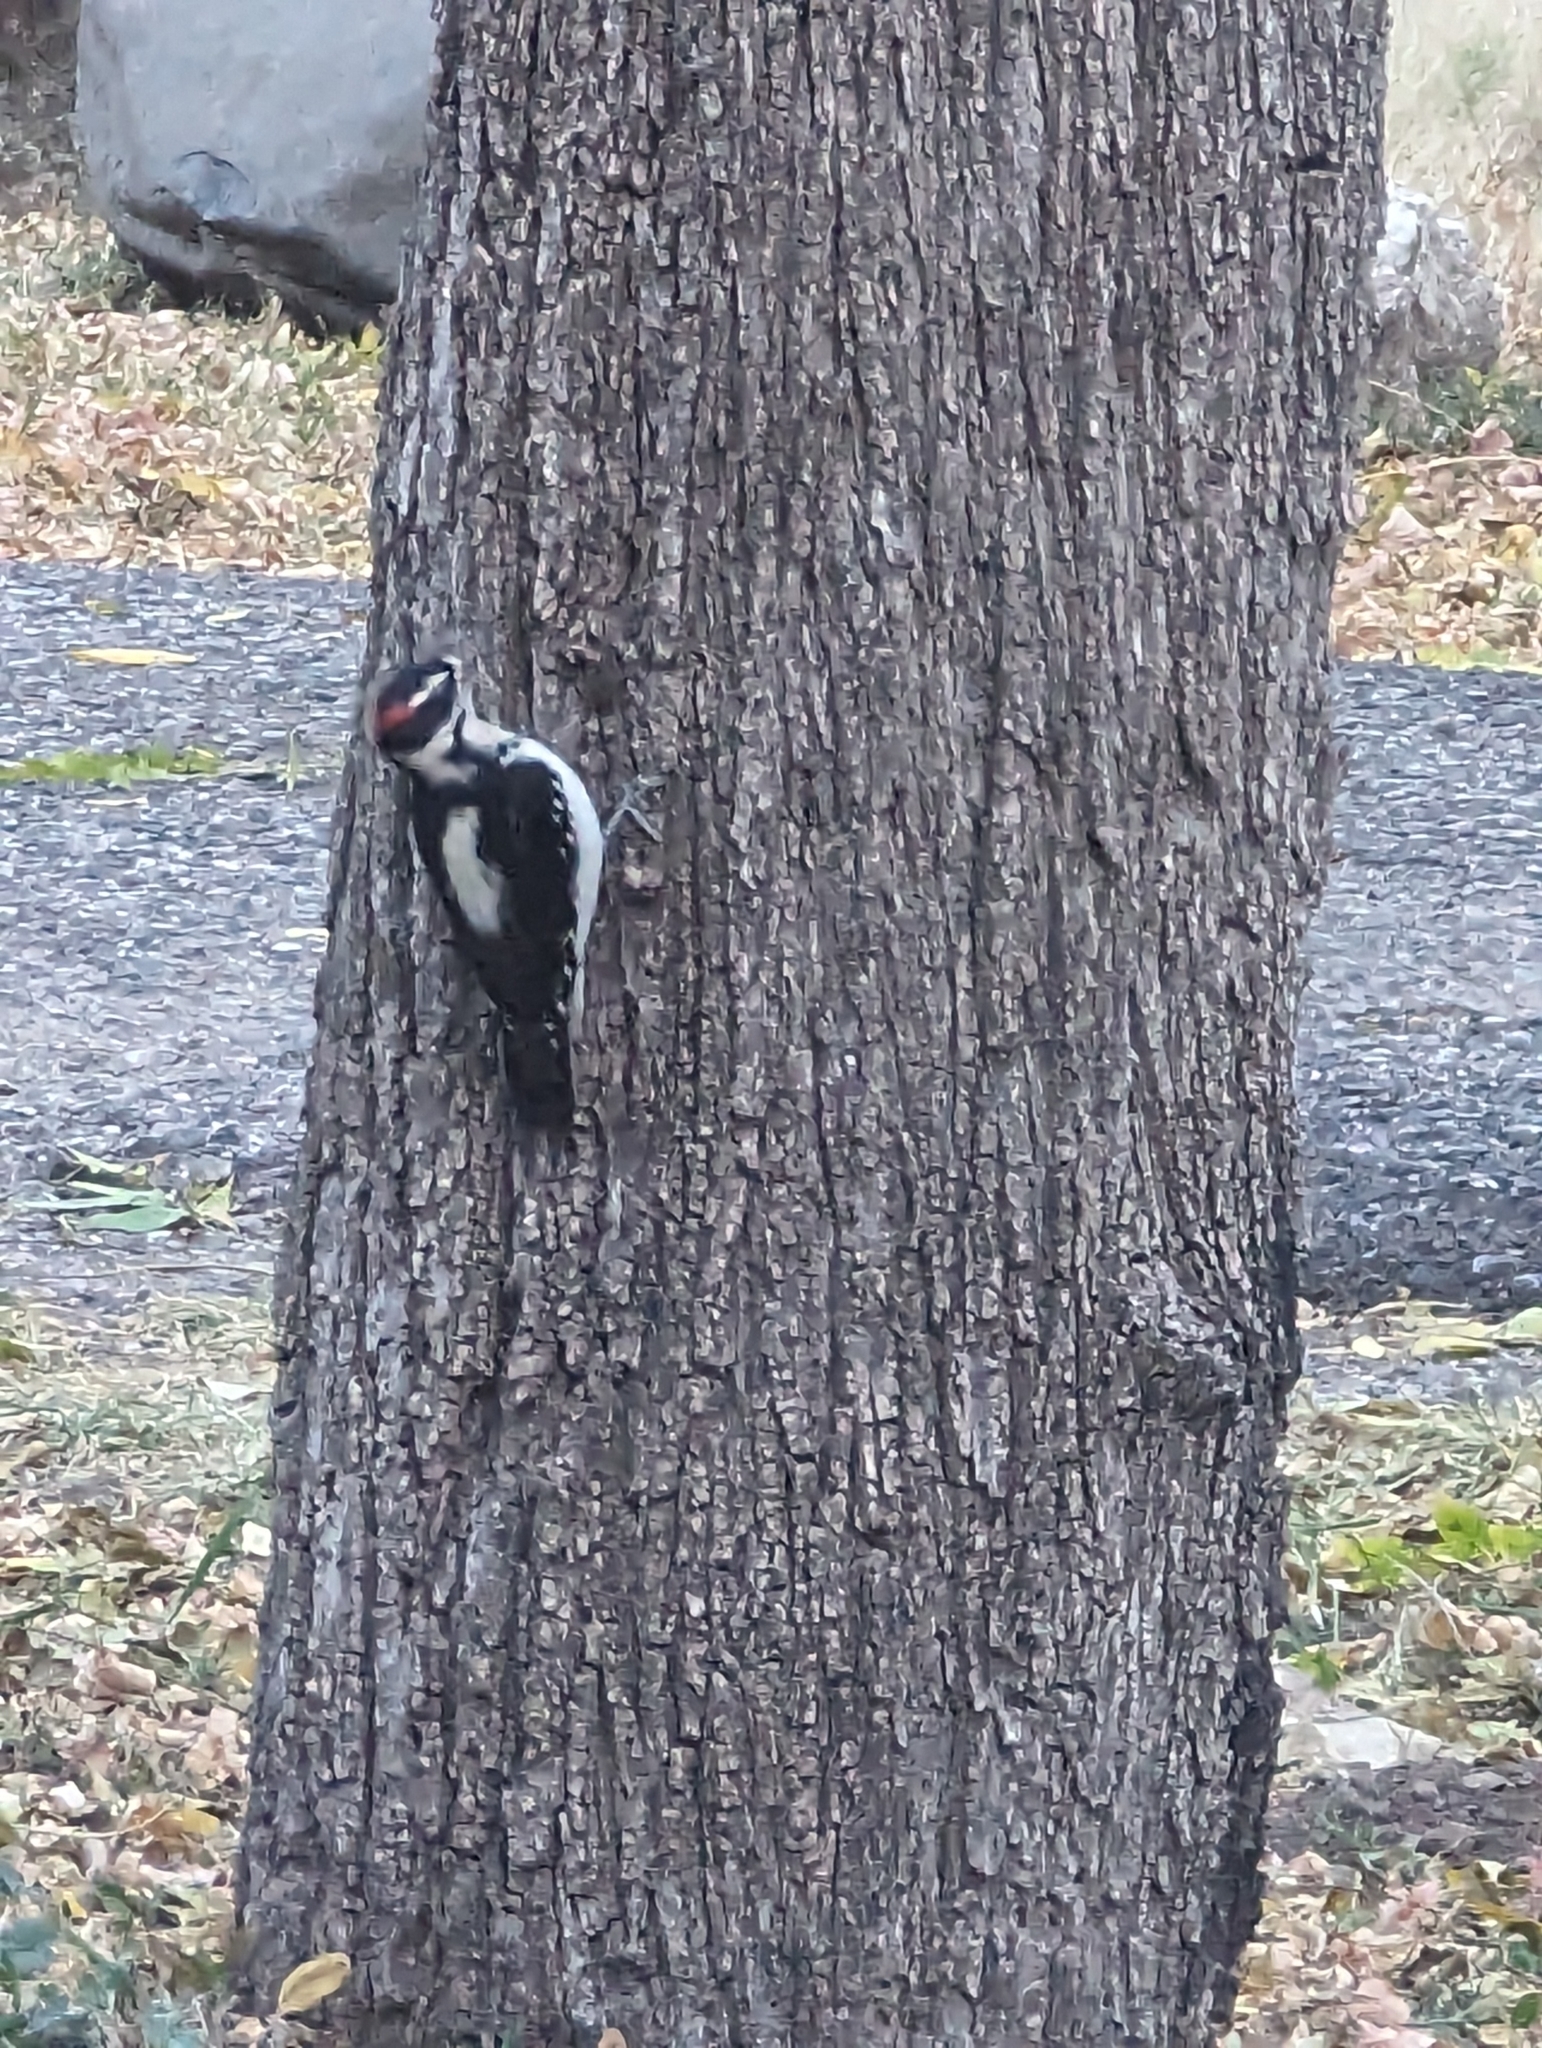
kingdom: Animalia
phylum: Chordata
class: Aves
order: Piciformes
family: Picidae
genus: Leuconotopicus
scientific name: Leuconotopicus villosus
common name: Hairy woodpecker
